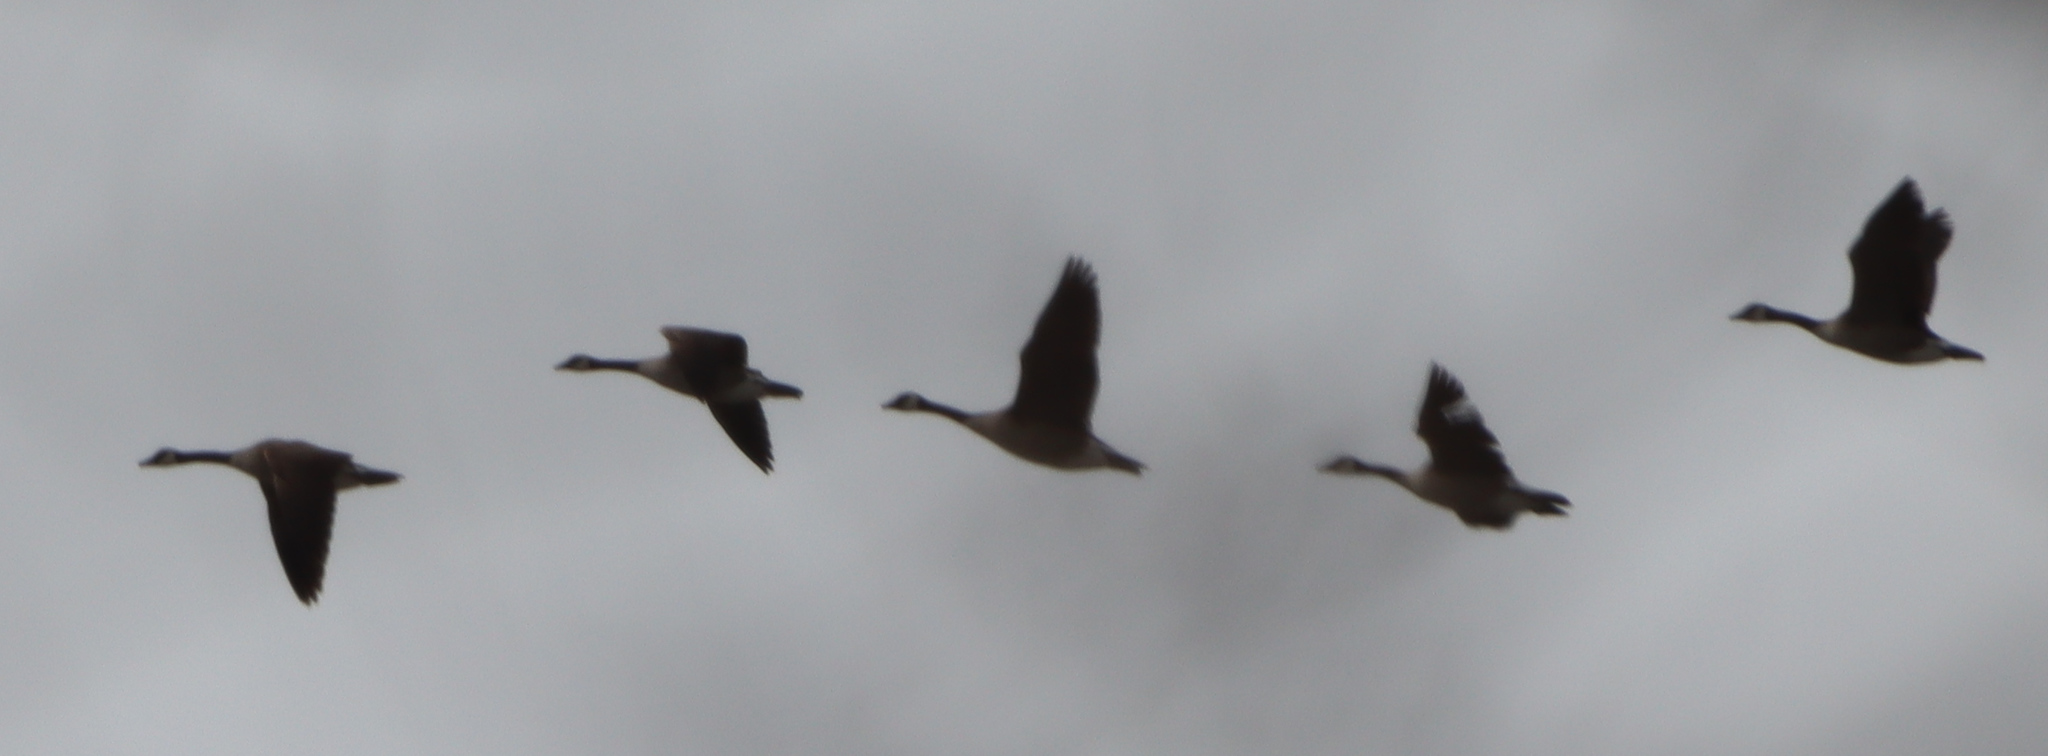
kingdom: Animalia
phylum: Chordata
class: Aves
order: Anseriformes
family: Anatidae
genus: Branta
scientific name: Branta canadensis
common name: Canada goose
